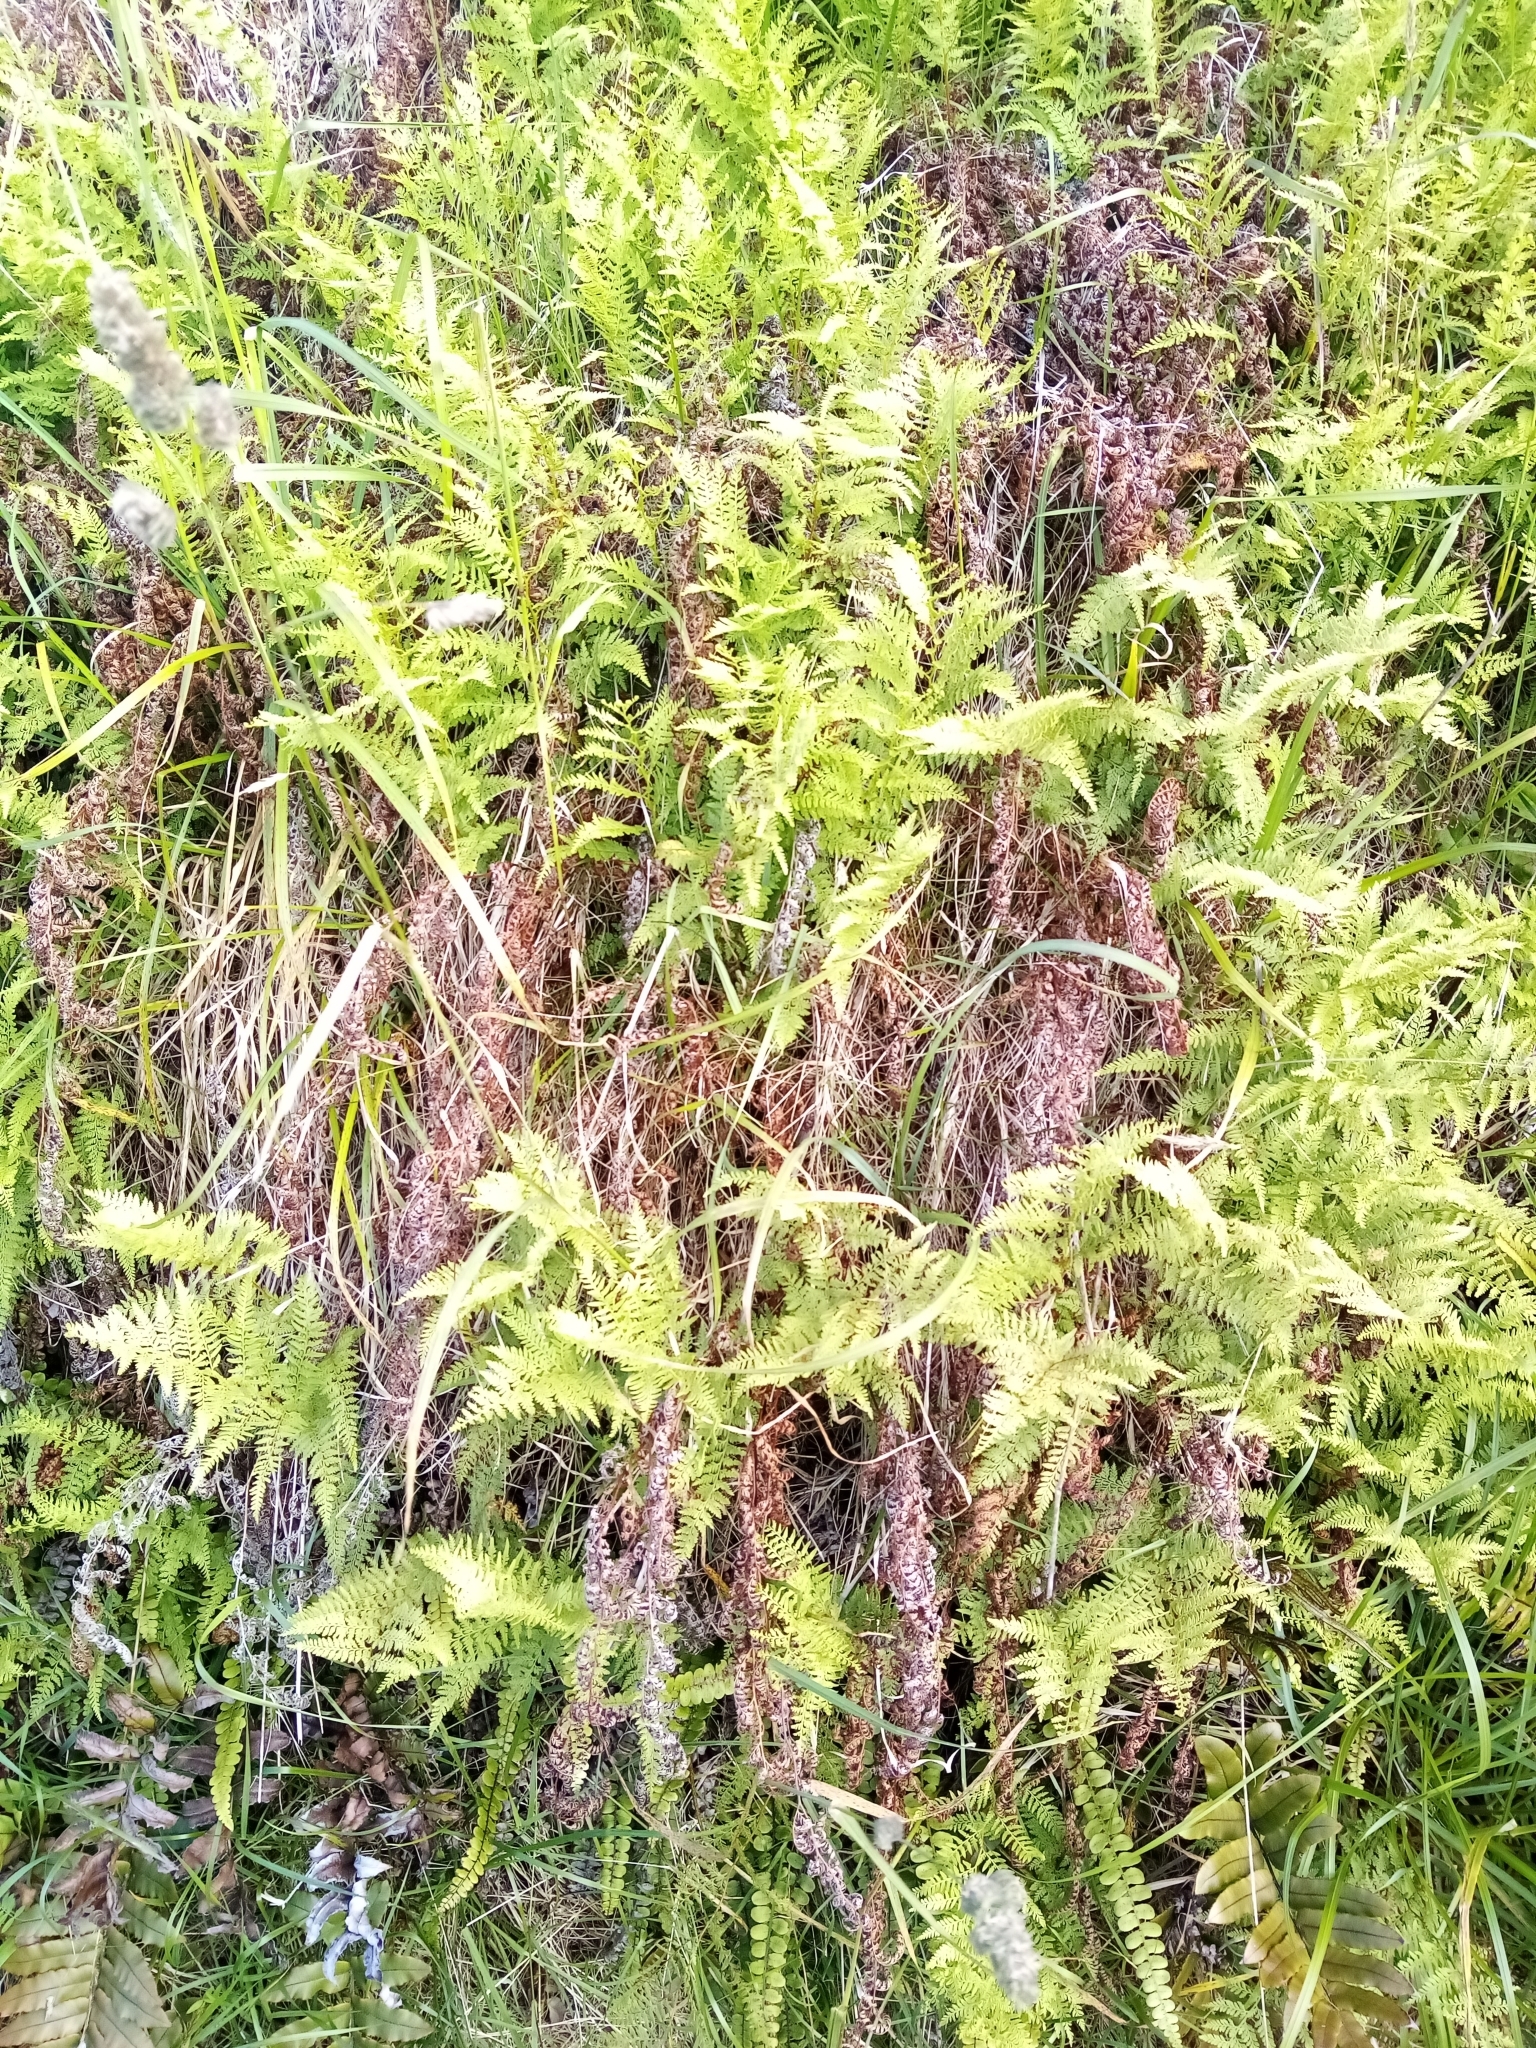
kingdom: Plantae
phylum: Tracheophyta
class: Polypodiopsida
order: Polypodiales
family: Dennstaedtiaceae
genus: Paesia
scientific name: Paesia scaberula
